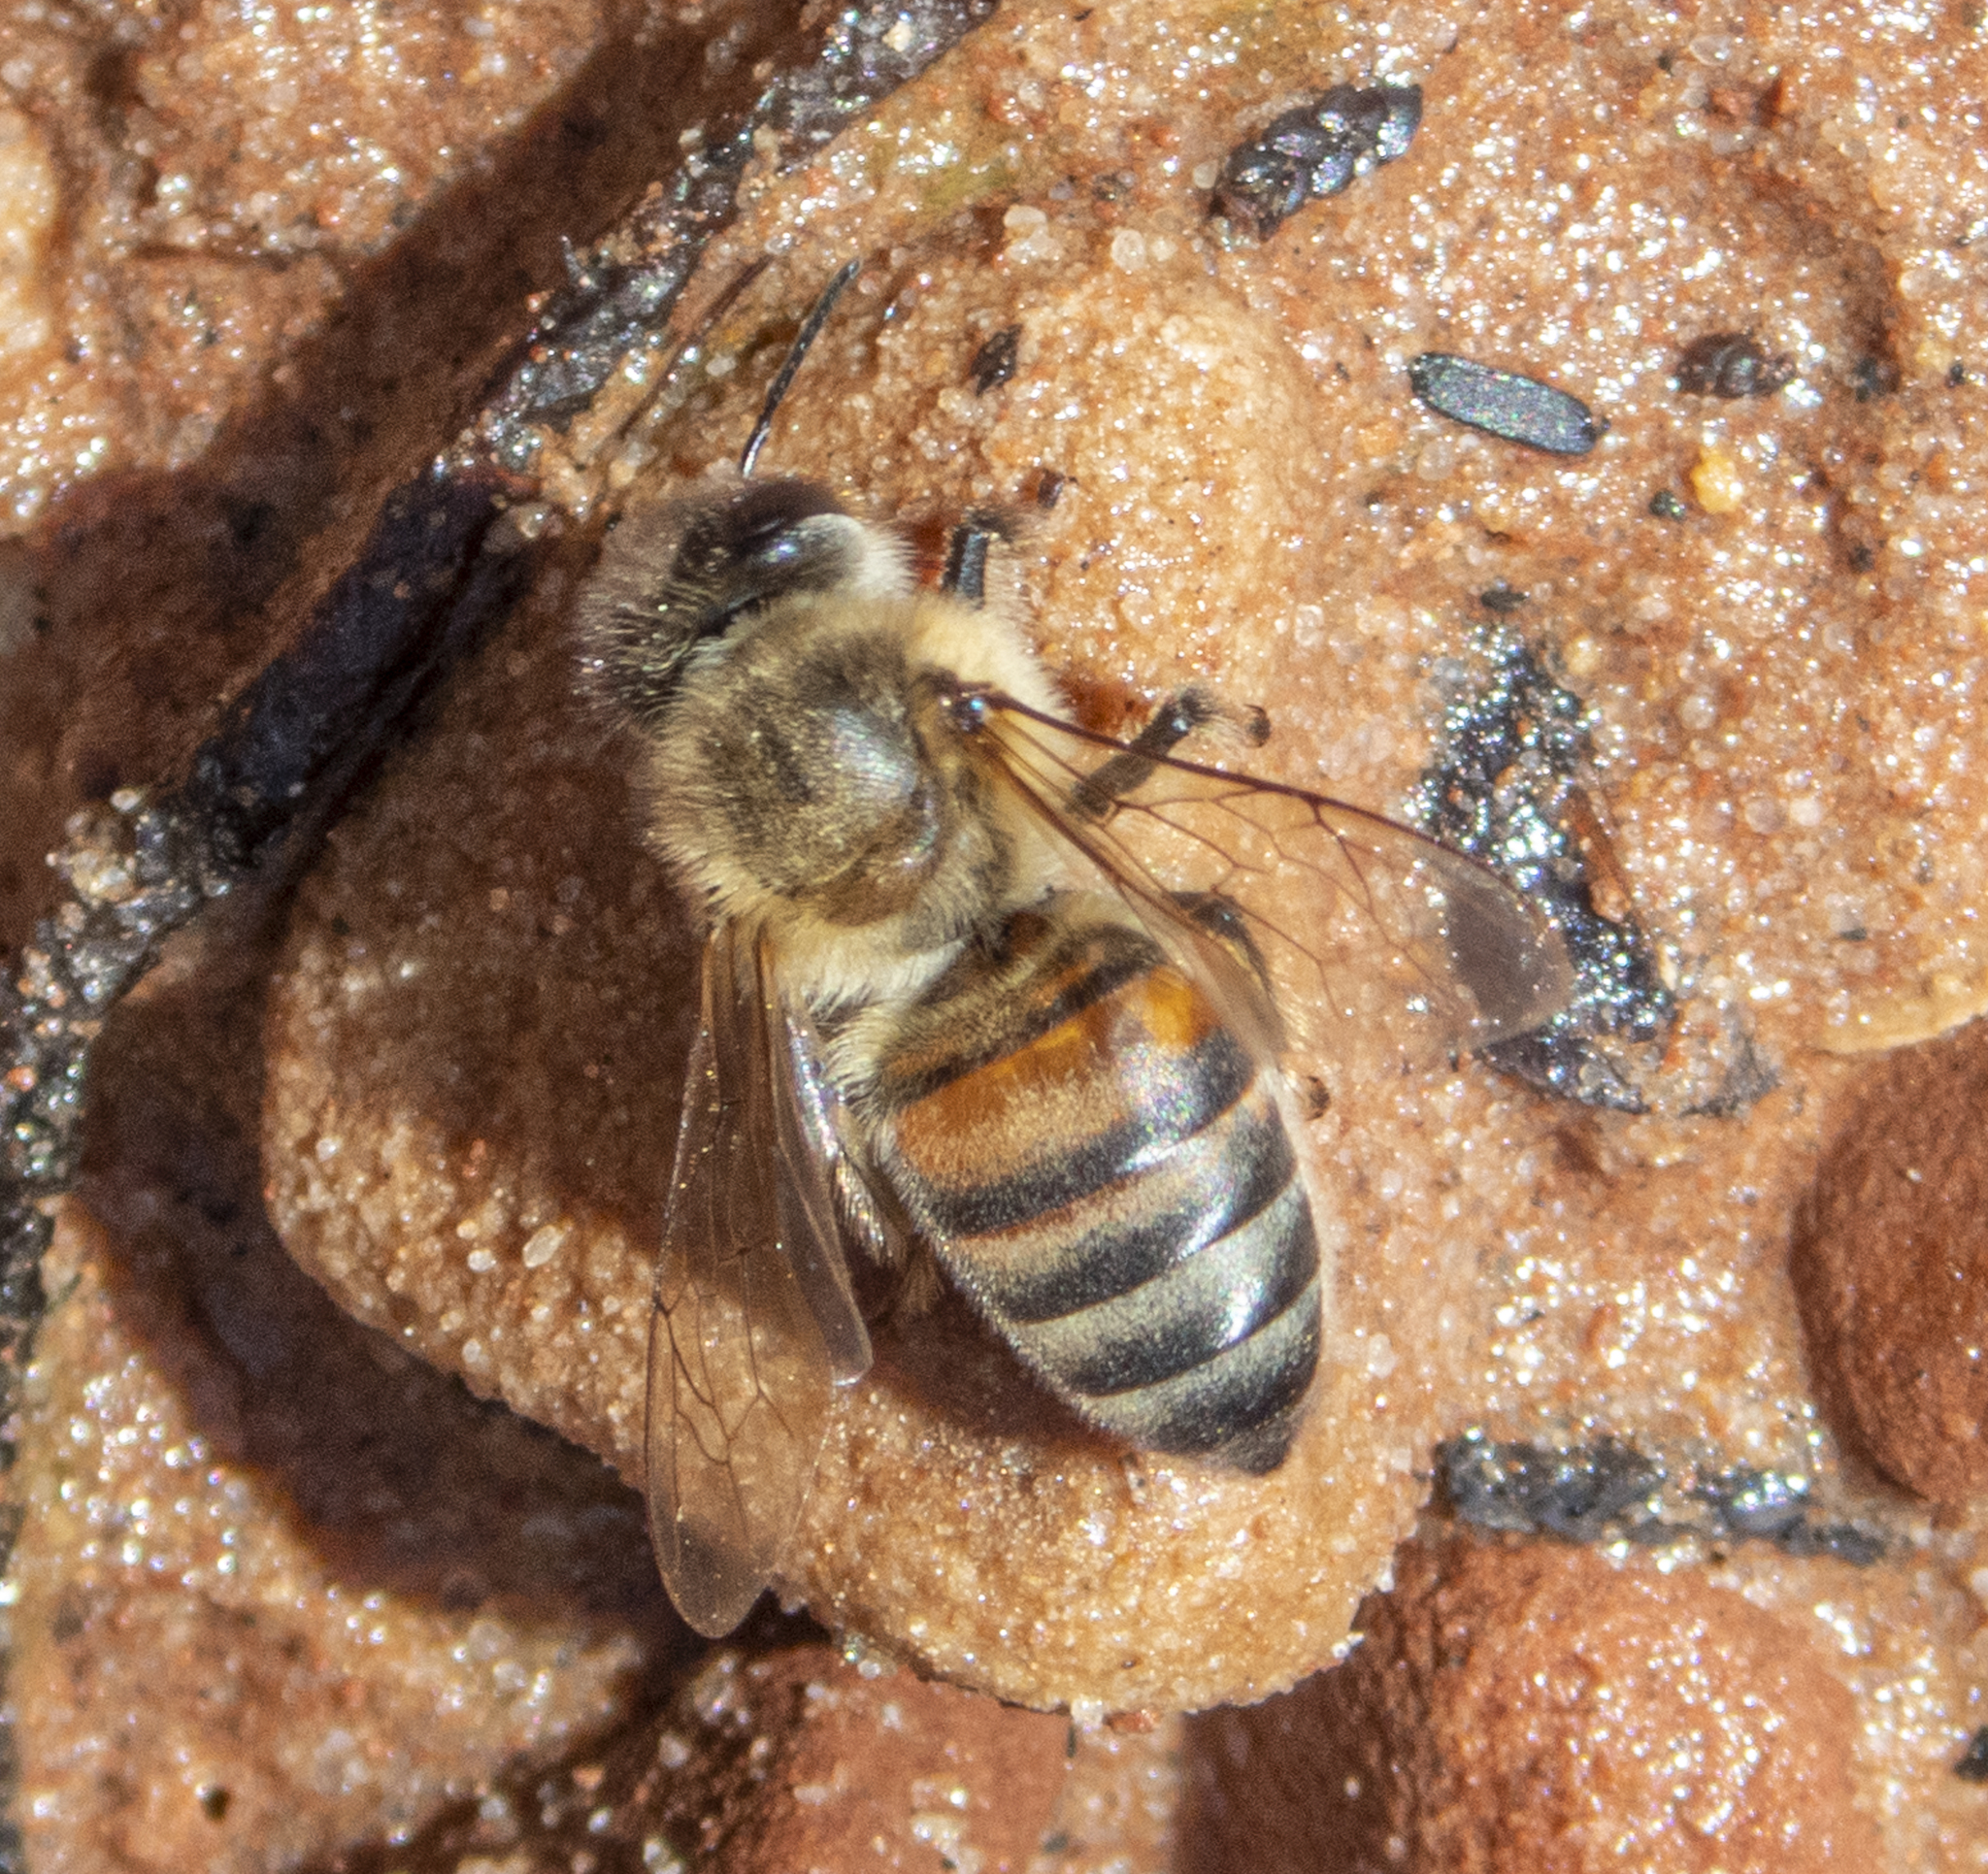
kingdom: Animalia
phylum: Arthropoda
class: Insecta
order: Hymenoptera
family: Apidae
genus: Apis
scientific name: Apis mellifera
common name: Honey bee
